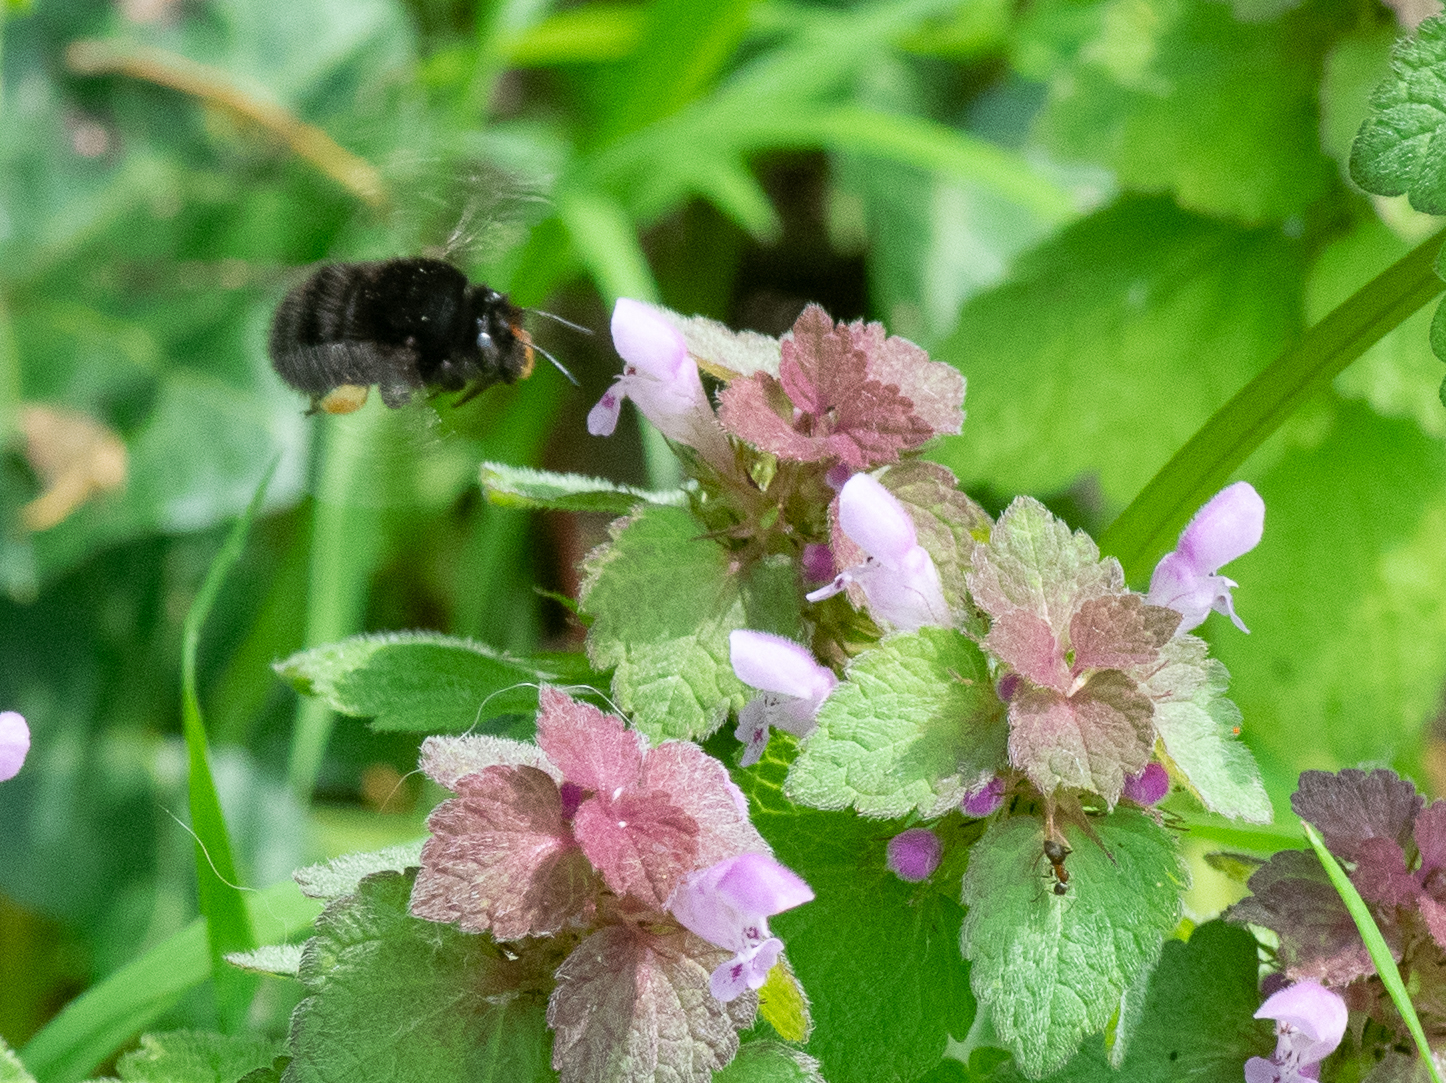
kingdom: Animalia
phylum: Arthropoda
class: Insecta
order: Hymenoptera
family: Apidae
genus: Anthophora
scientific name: Anthophora plumipes
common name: Hairy-footed flower bee
